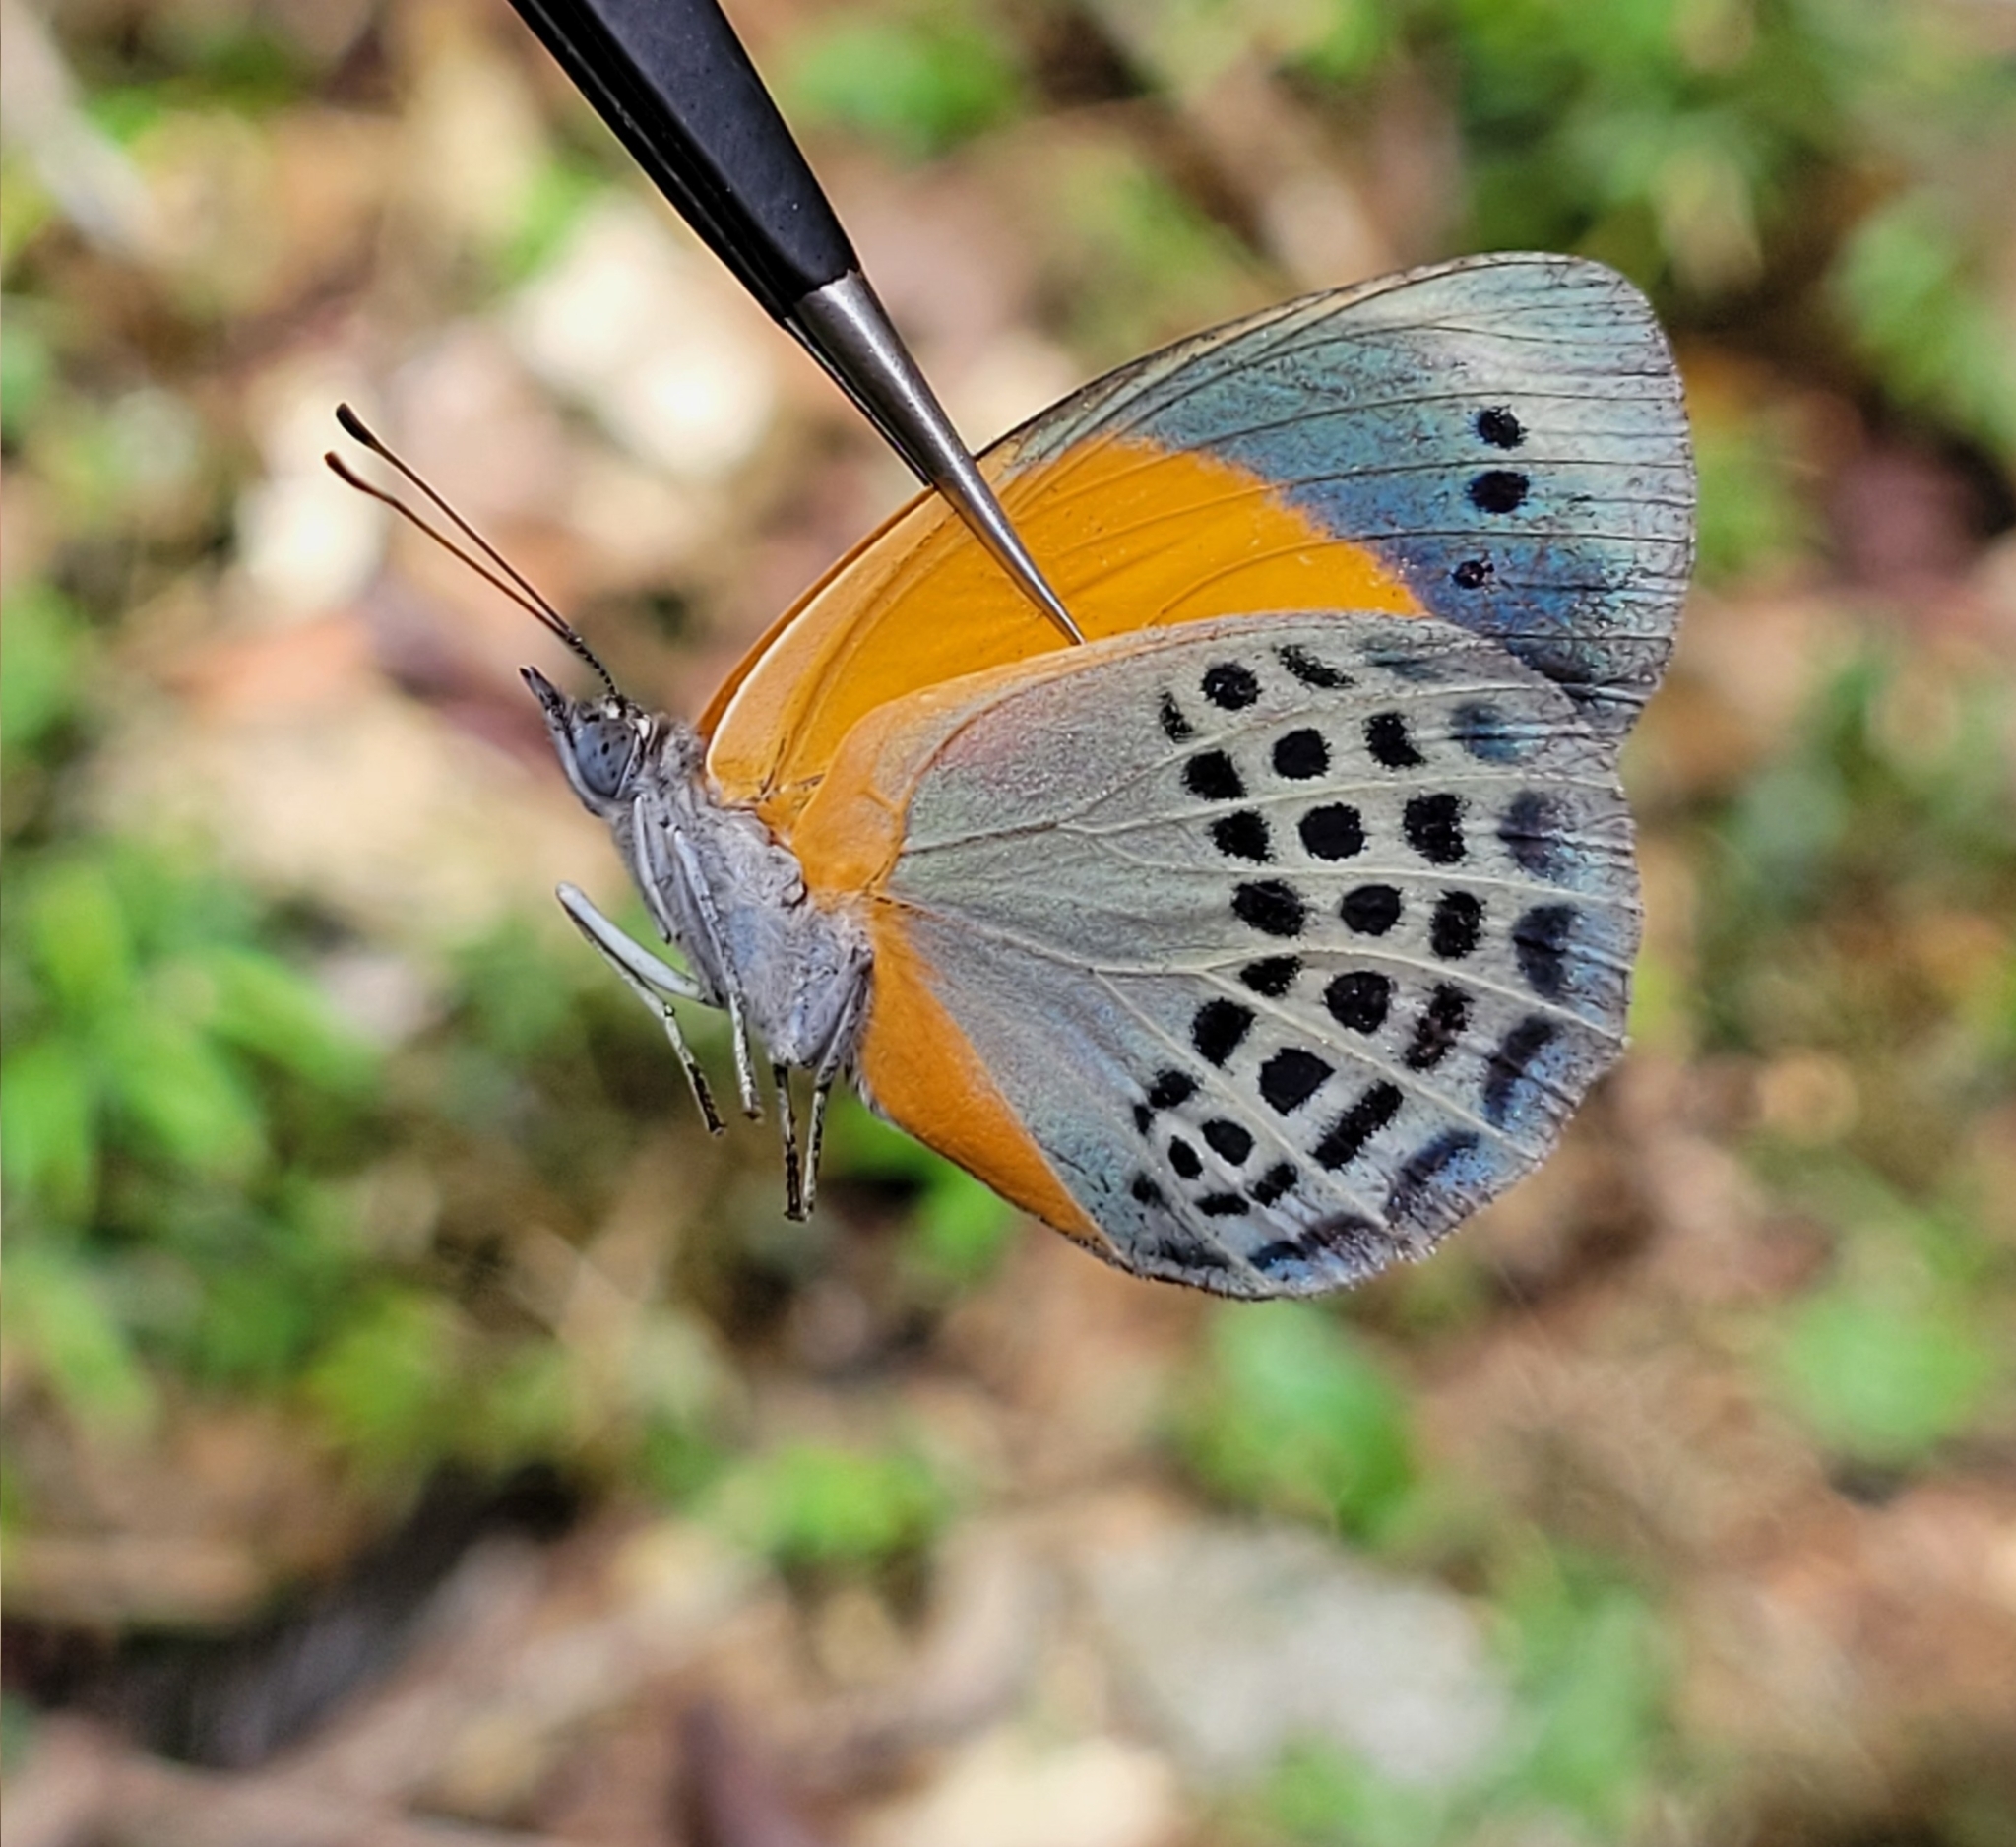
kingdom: Animalia
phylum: Arthropoda
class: Insecta
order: Lepidoptera
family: Nymphalidae
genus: Callithea
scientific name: Callithea markii
